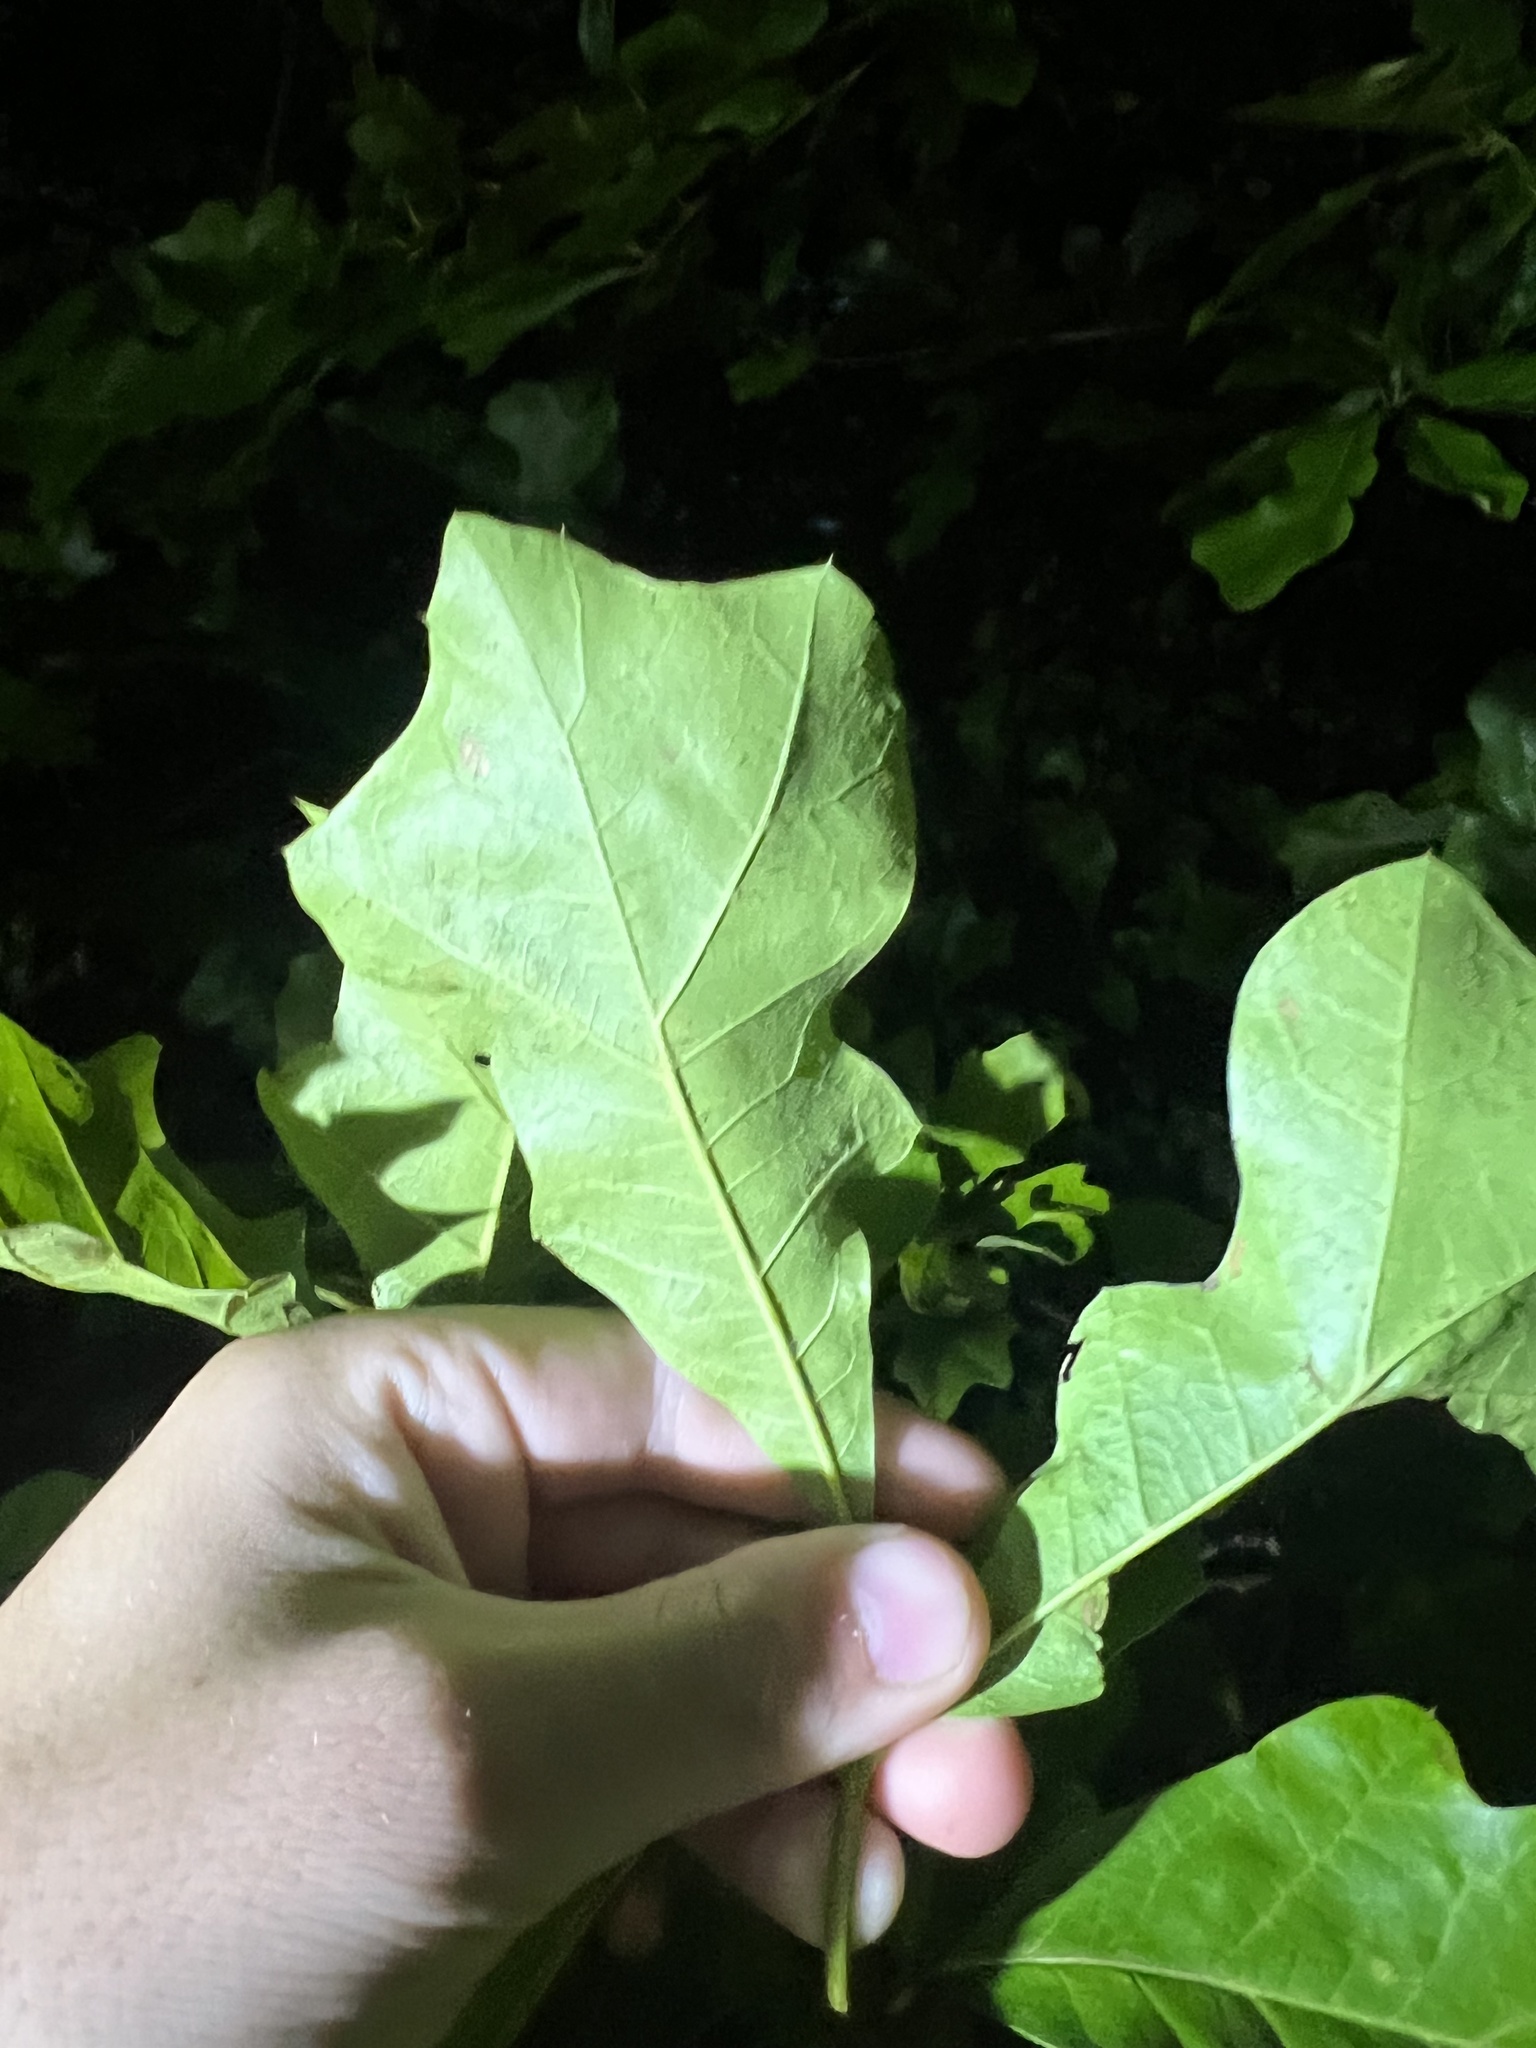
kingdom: Plantae
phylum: Tracheophyta
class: Magnoliopsida
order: Fagales
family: Fagaceae
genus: Quercus
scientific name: Quercus velutina
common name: Black oak
